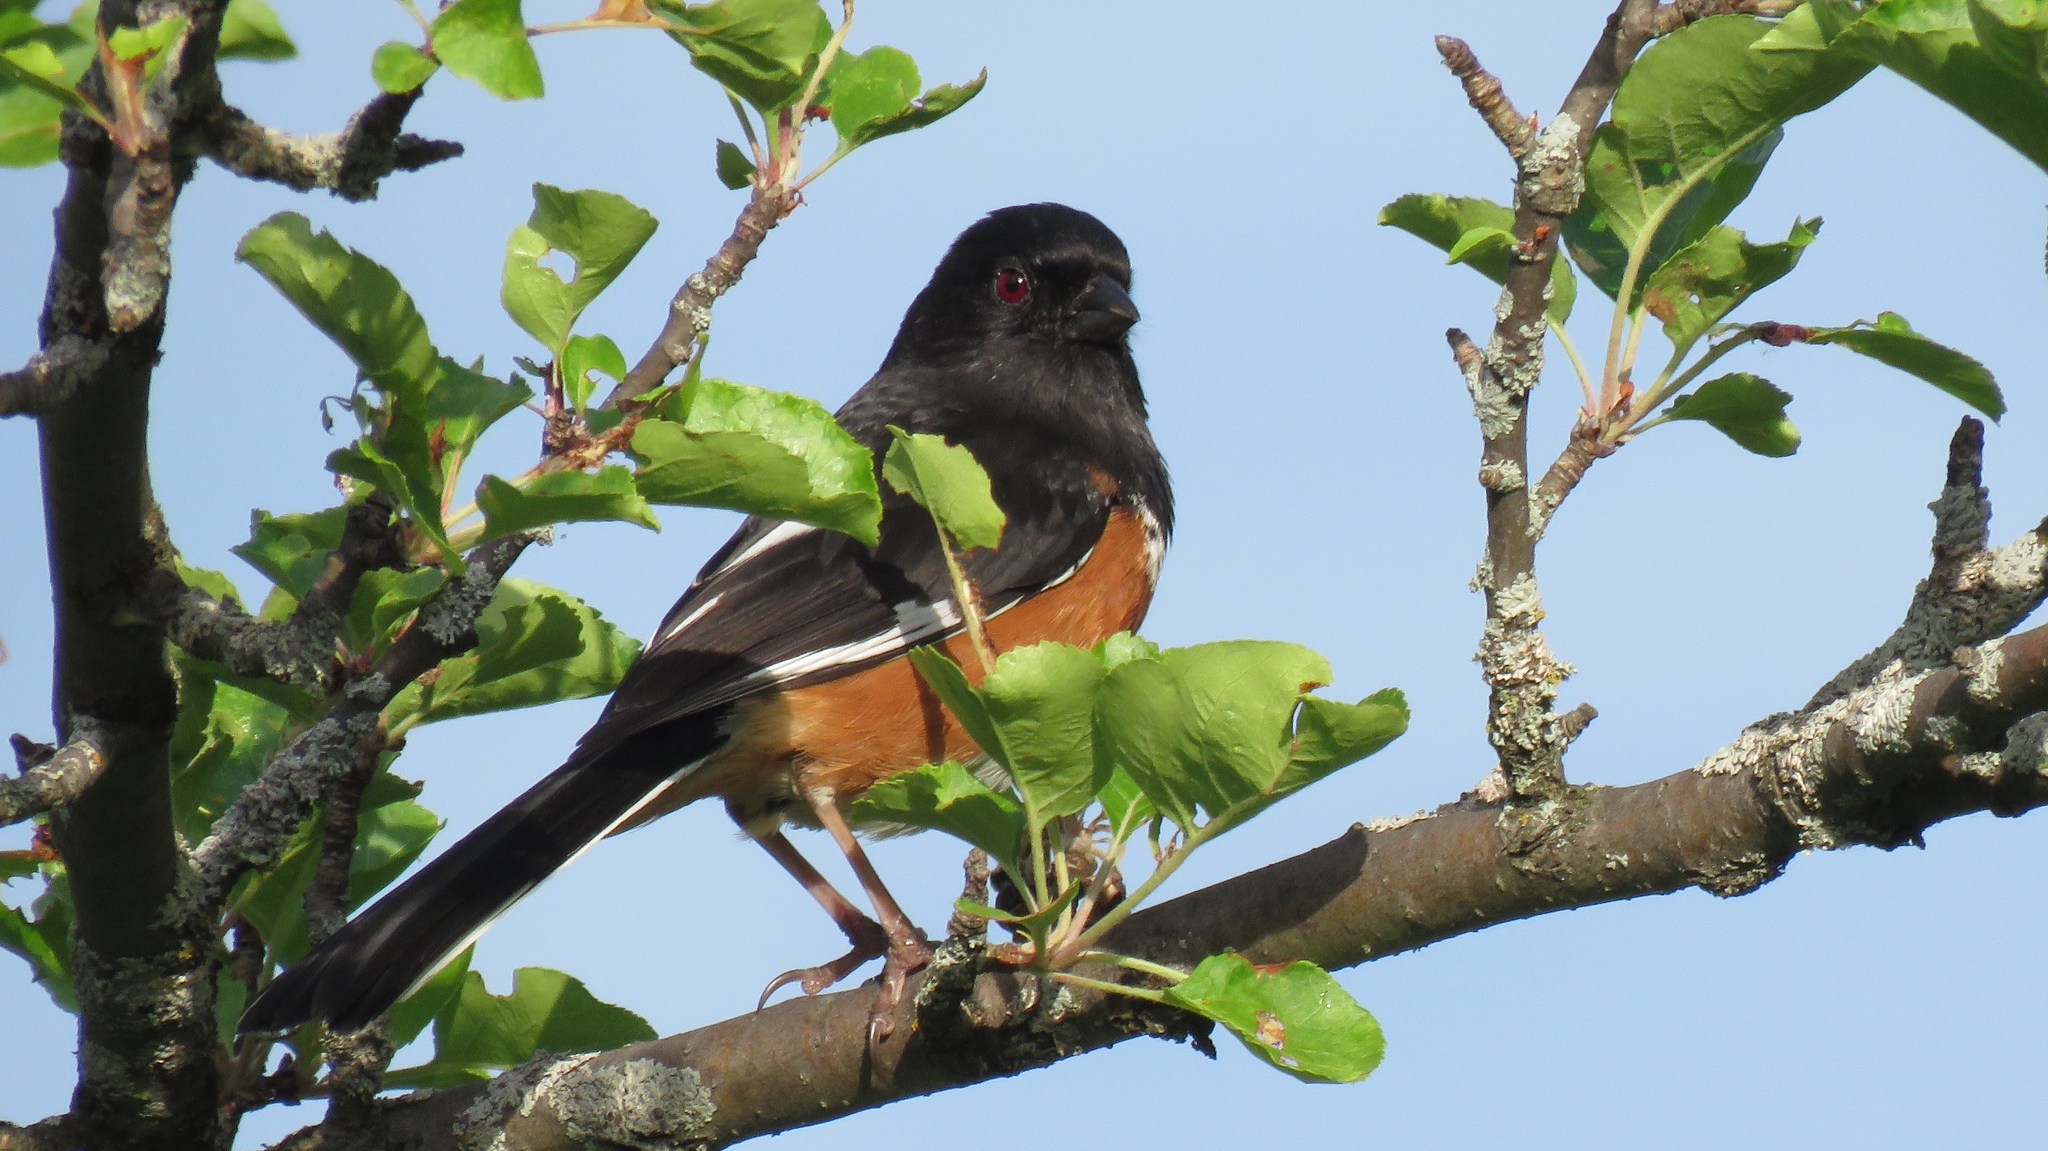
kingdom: Animalia
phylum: Chordata
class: Aves
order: Passeriformes
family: Passerellidae
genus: Pipilo
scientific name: Pipilo erythrophthalmus
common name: Eastern towhee
